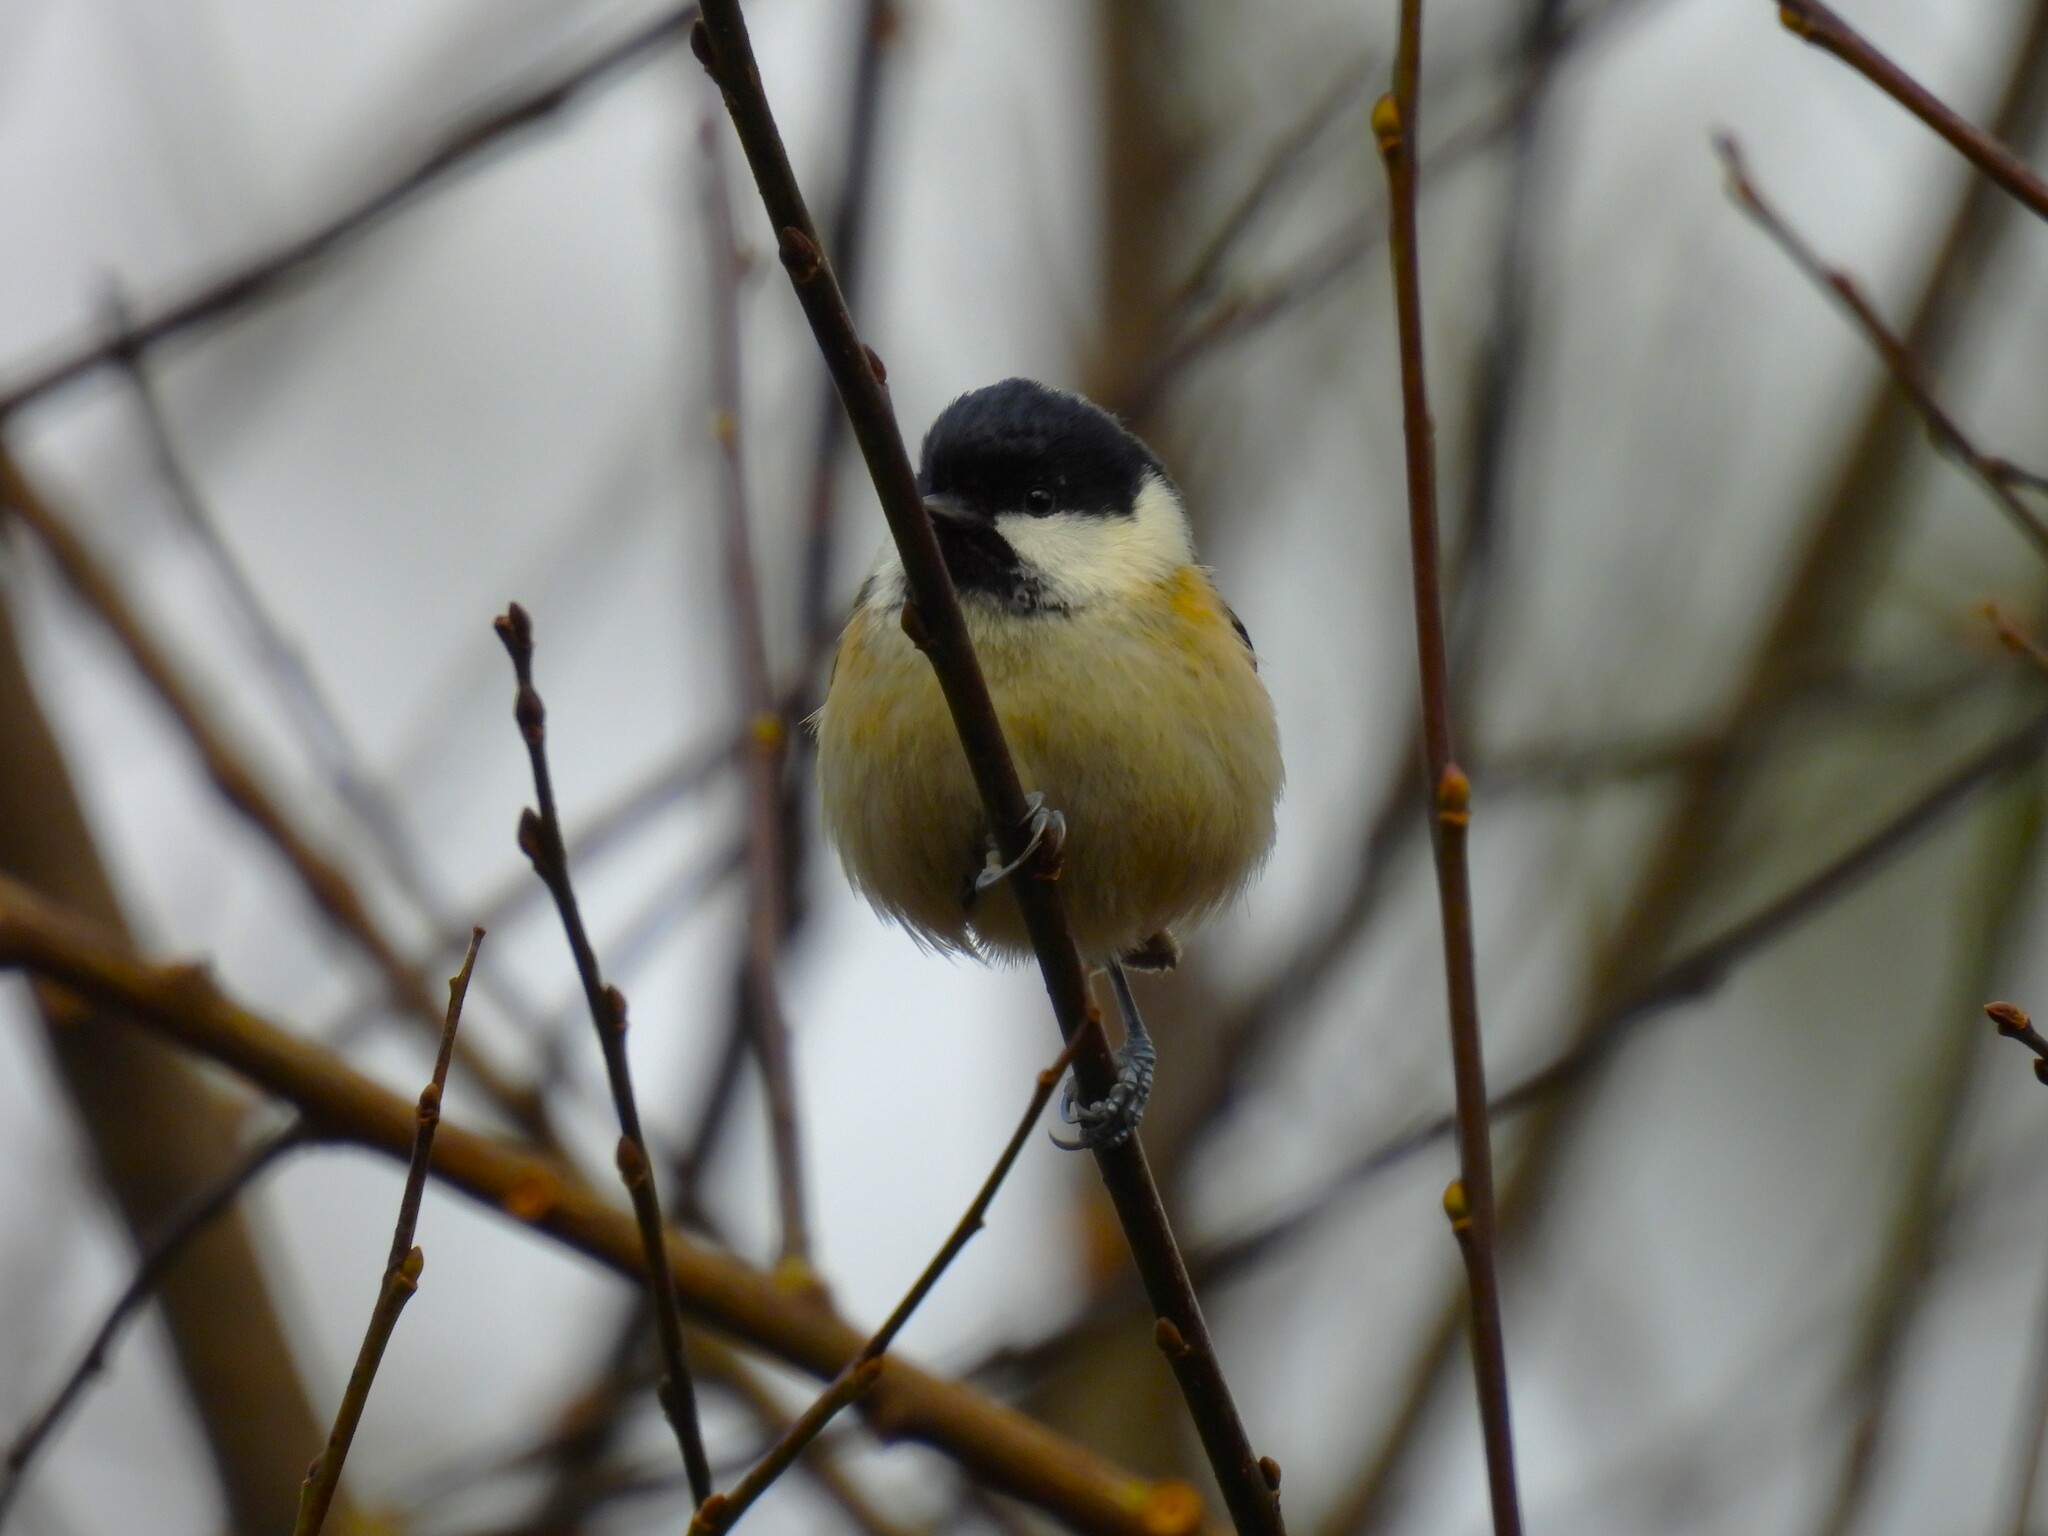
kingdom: Animalia
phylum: Chordata
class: Aves
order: Passeriformes
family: Paridae
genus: Periparus
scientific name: Periparus ater
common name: Coal tit
